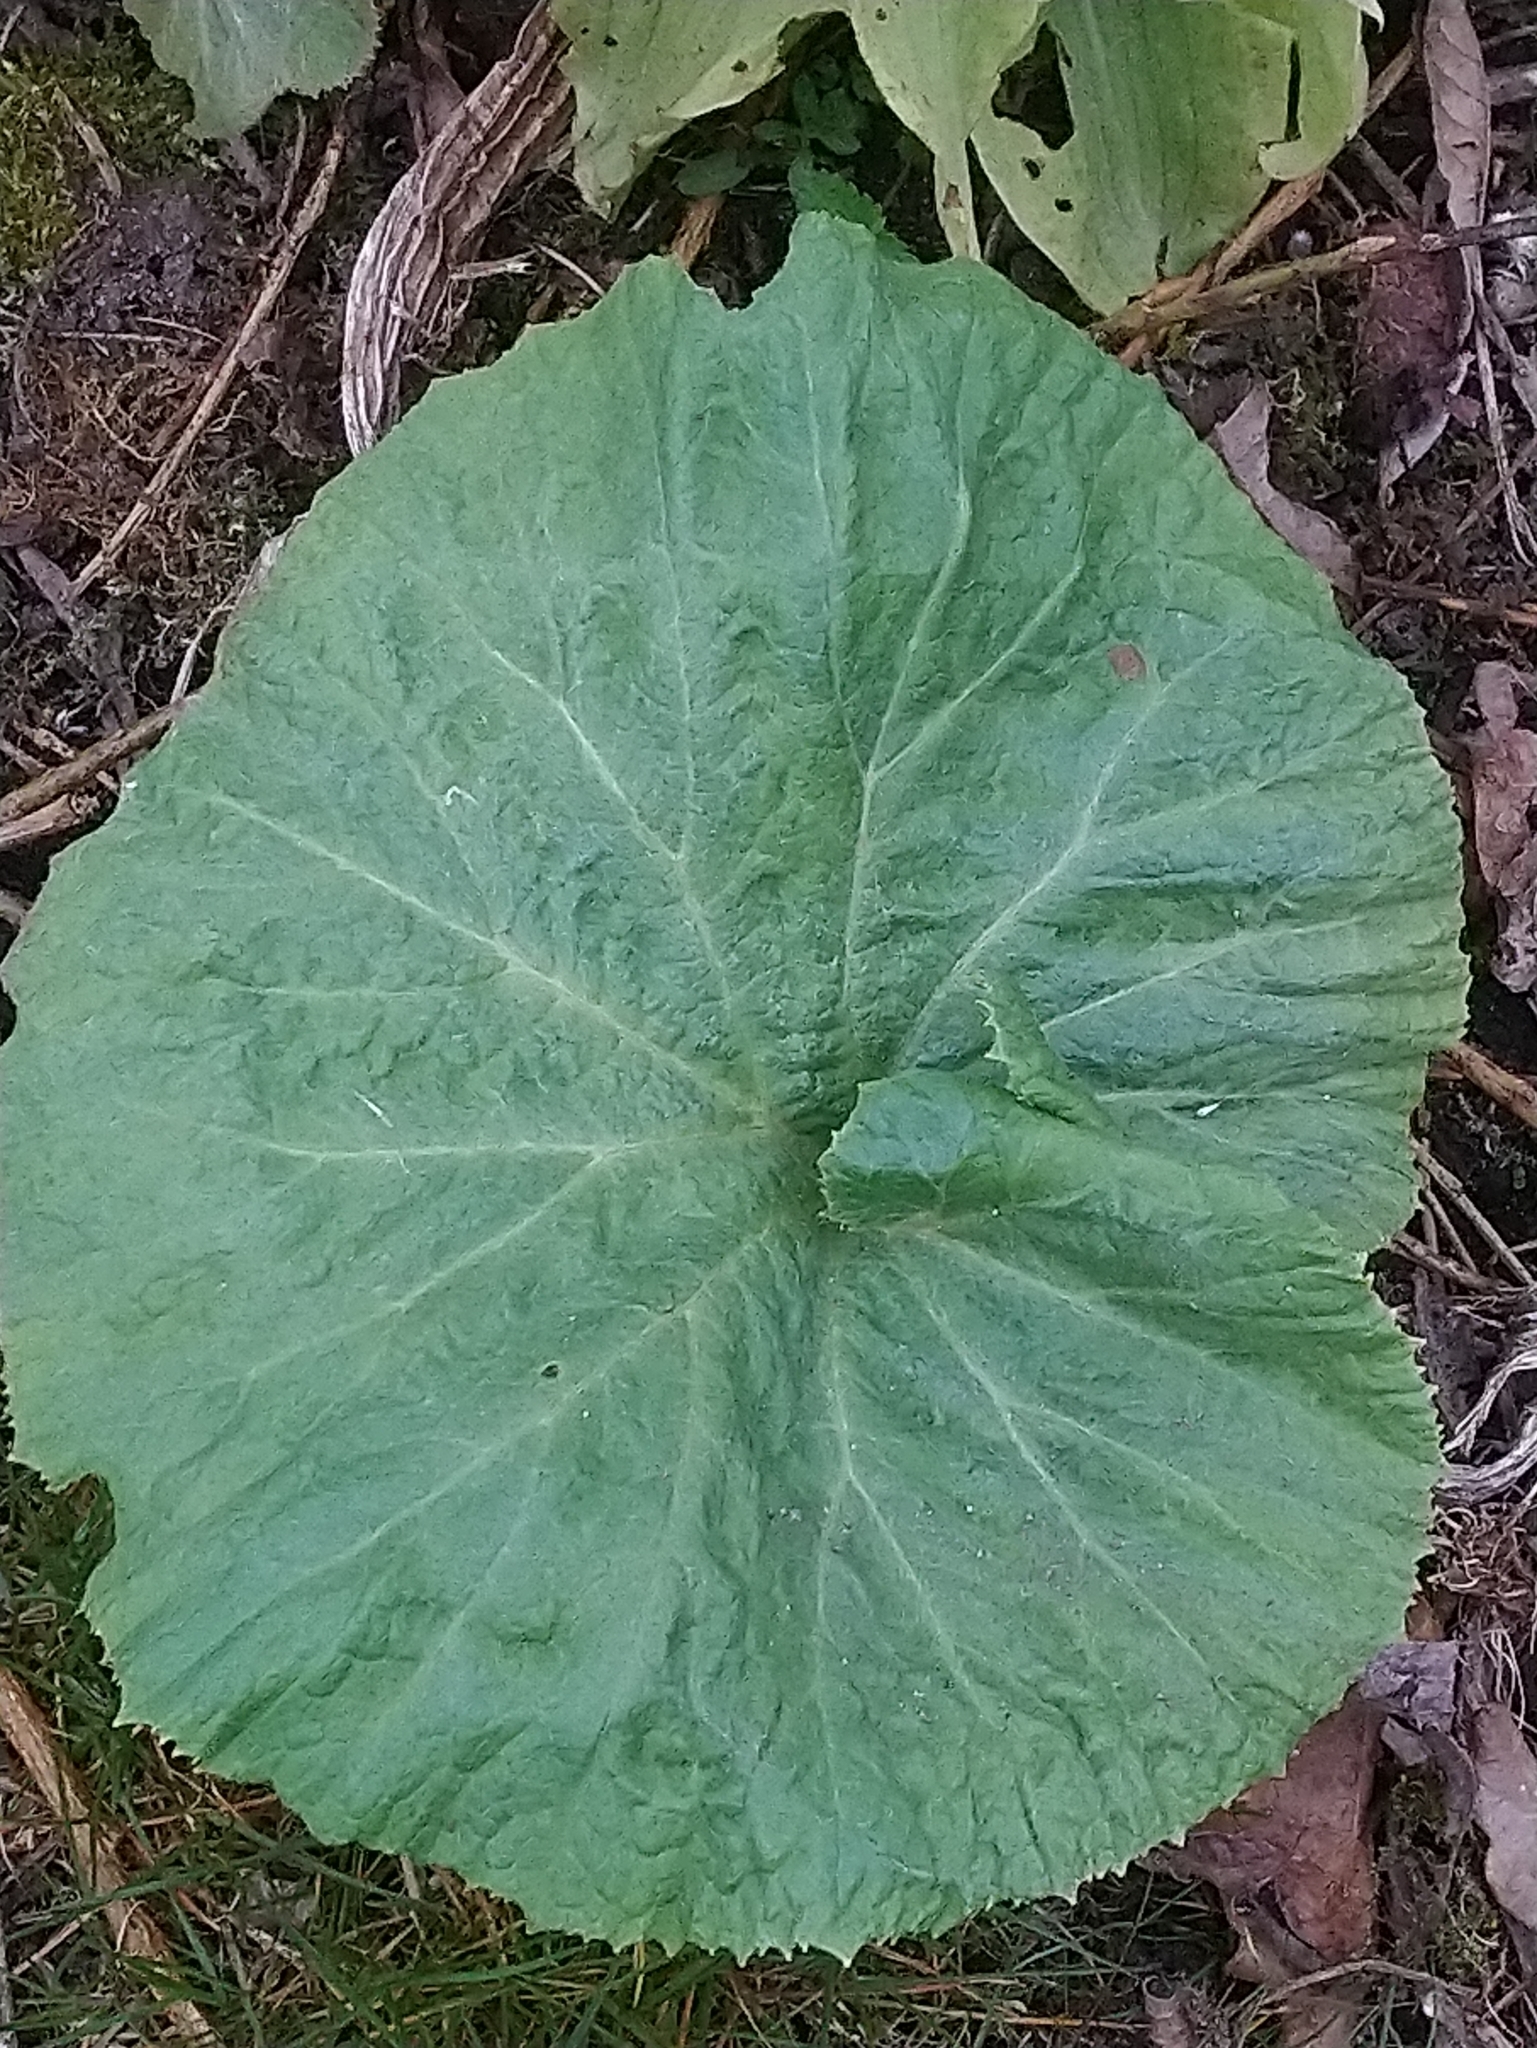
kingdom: Plantae
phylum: Tracheophyta
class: Magnoliopsida
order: Asterales
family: Asteraceae
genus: Petasites
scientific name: Petasites japonicus
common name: Giant butterbur
